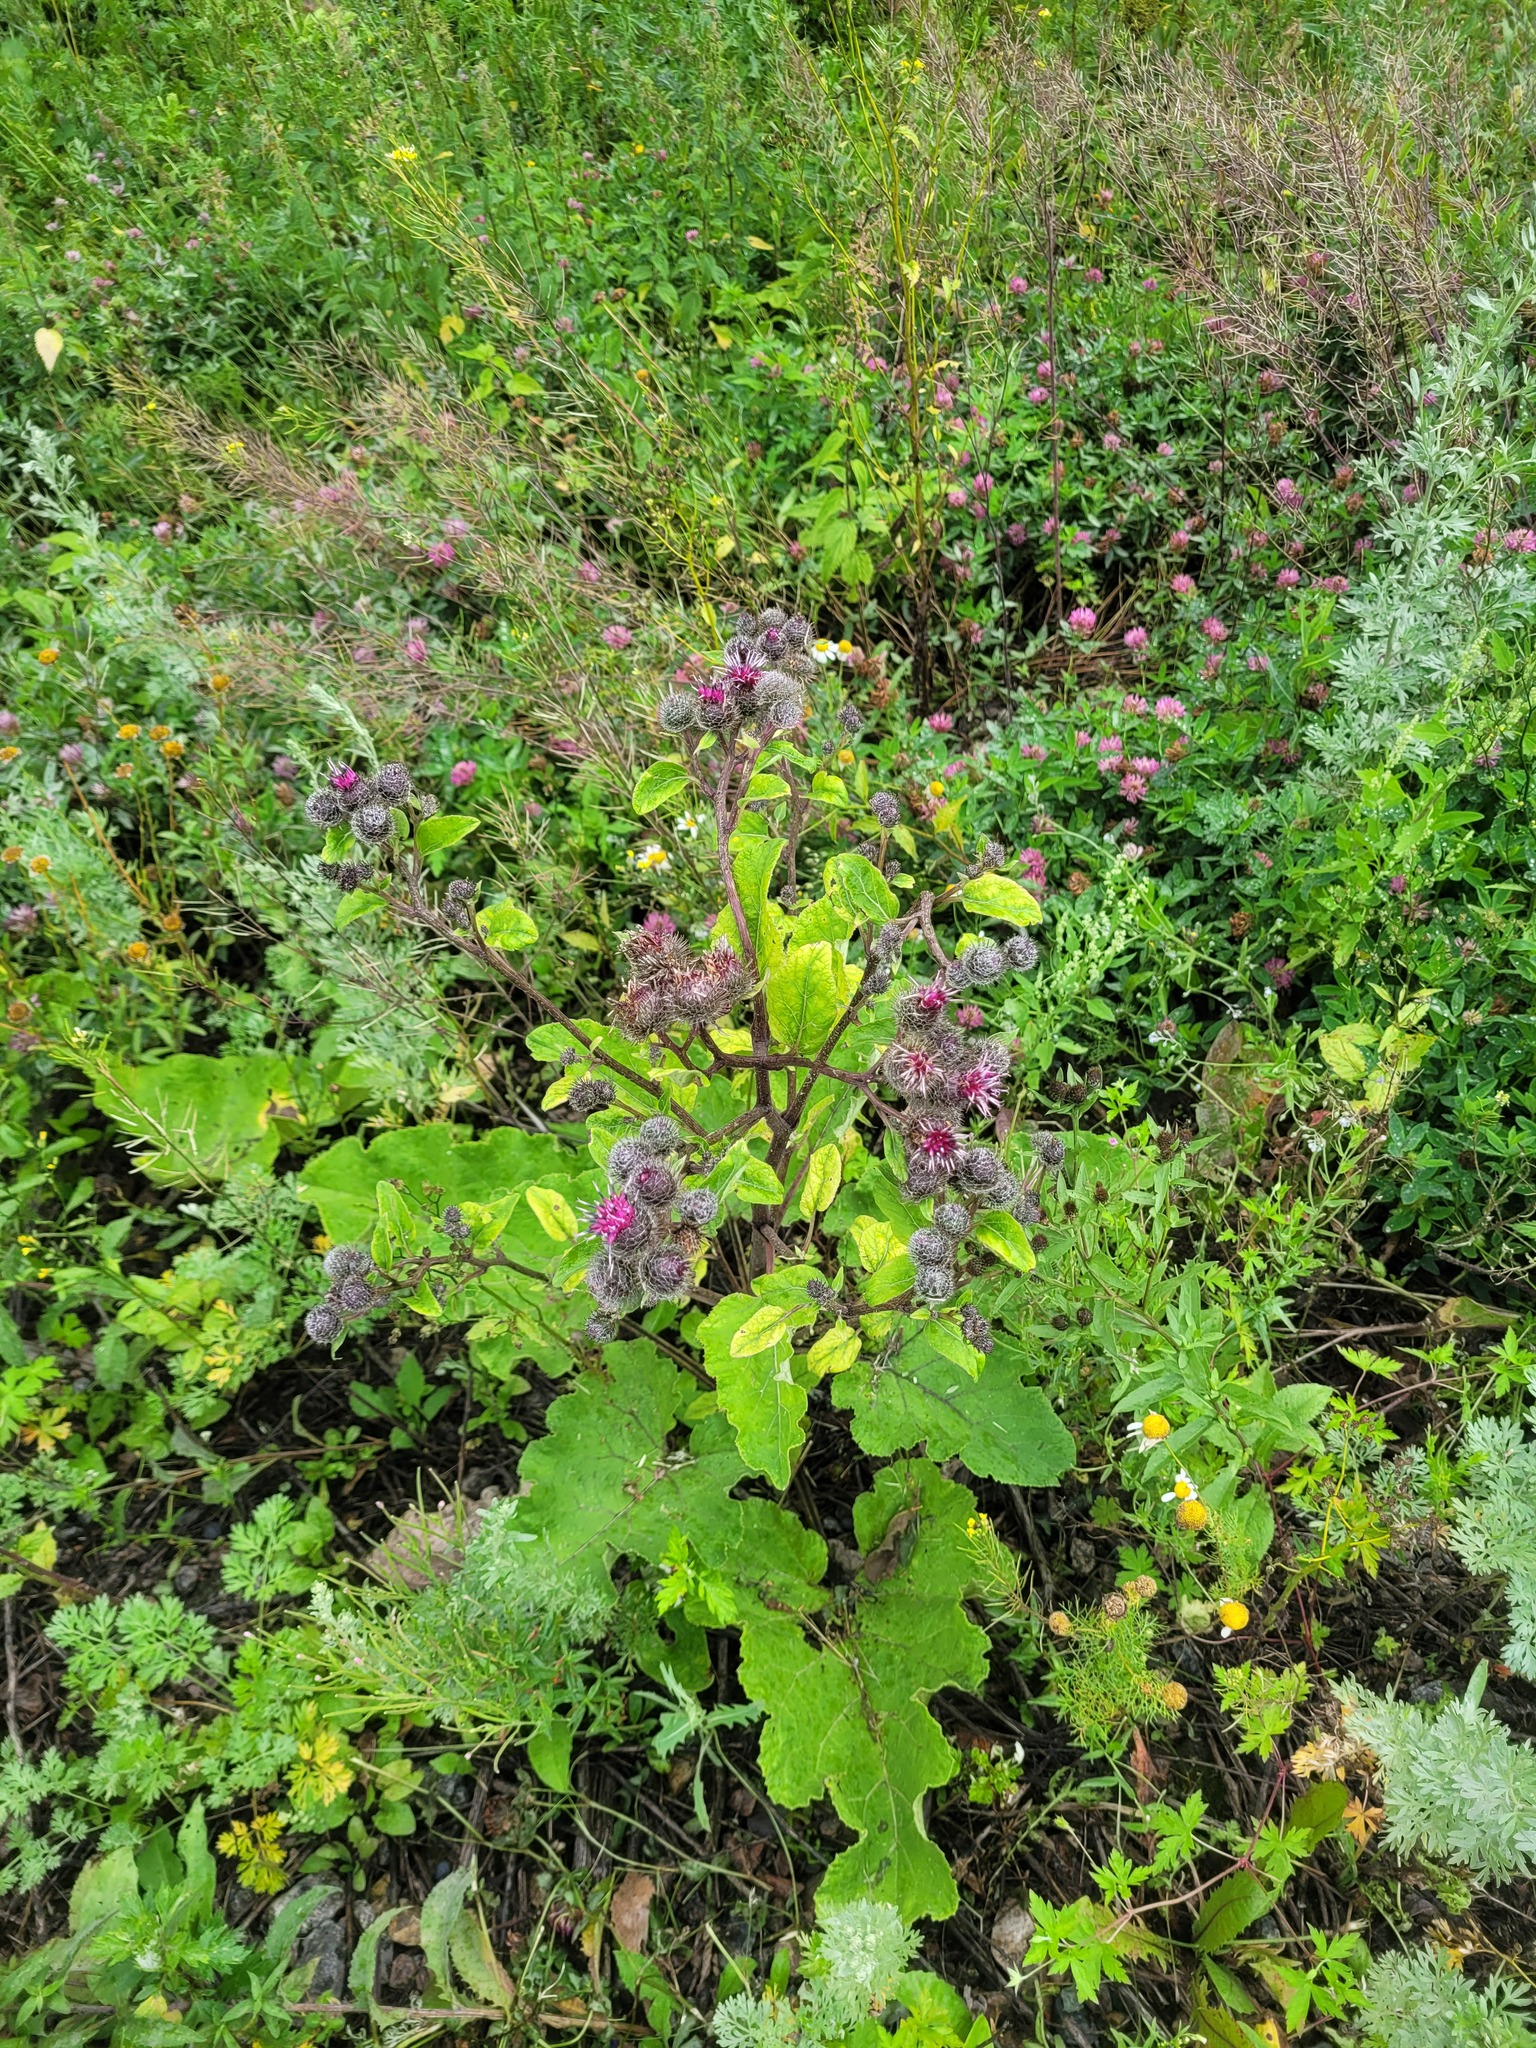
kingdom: Plantae
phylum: Tracheophyta
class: Magnoliopsida
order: Asterales
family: Asteraceae
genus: Arctium
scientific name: Arctium tomentosum
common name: Woolly burdock
